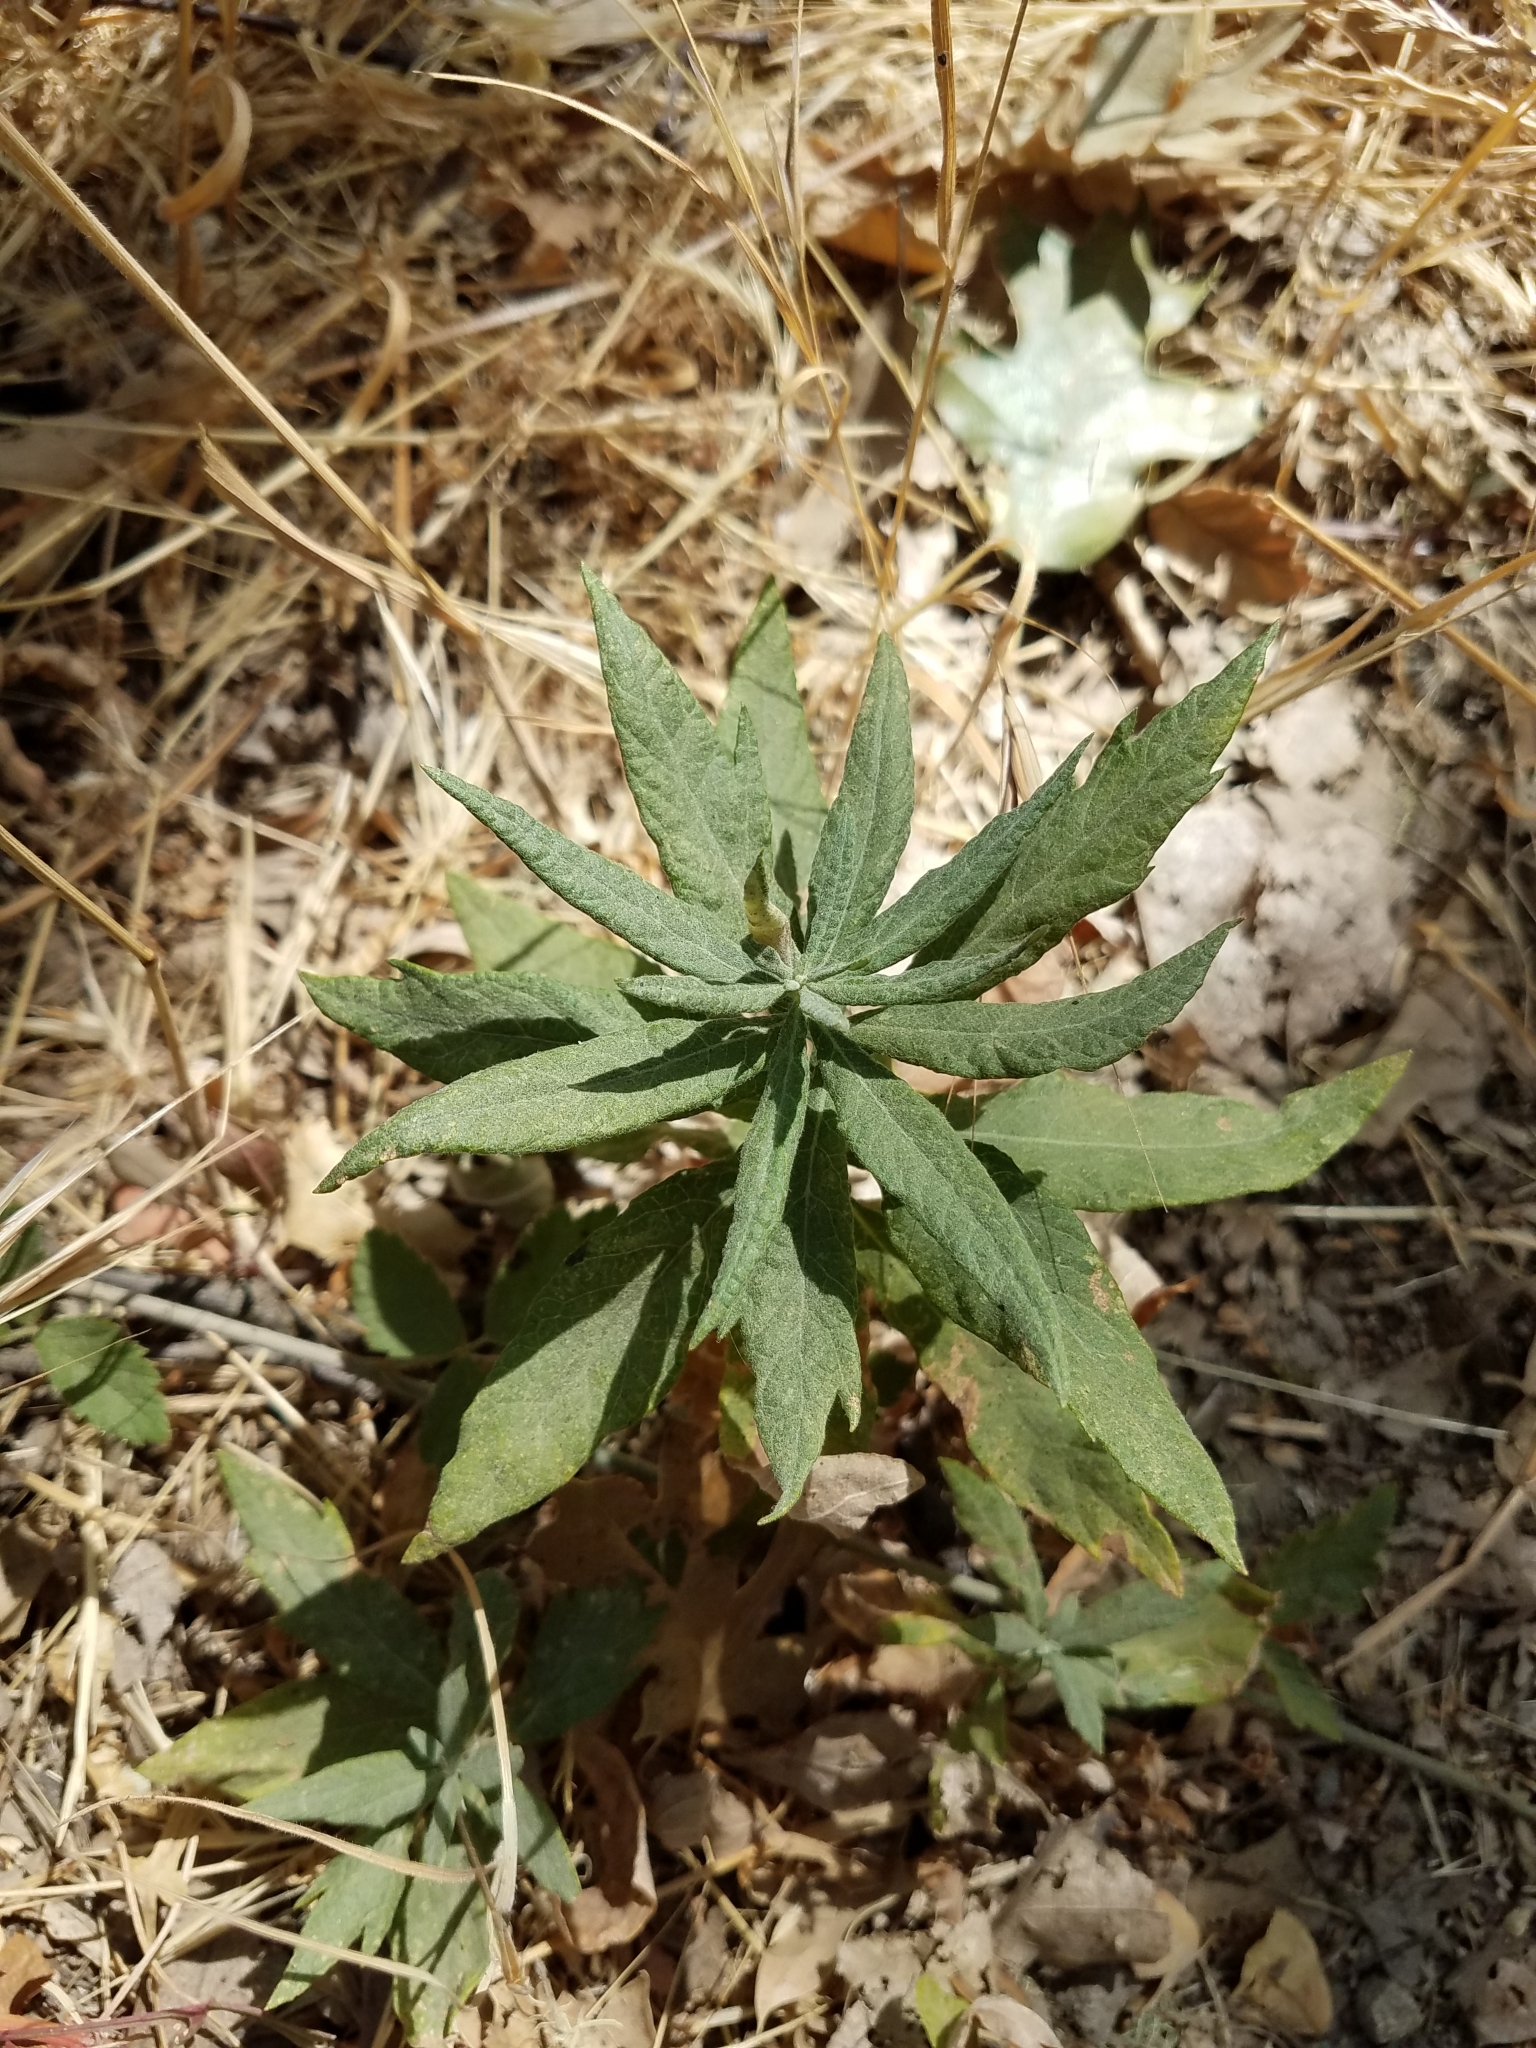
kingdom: Plantae
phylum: Tracheophyta
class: Magnoliopsida
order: Asterales
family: Asteraceae
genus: Artemisia
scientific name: Artemisia douglasiana
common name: Northwest mugwort
